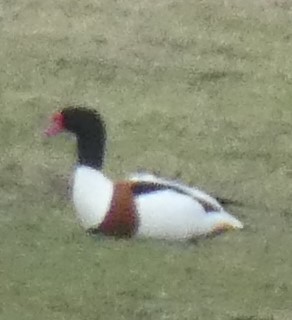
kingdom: Animalia
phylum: Chordata
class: Aves
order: Anseriformes
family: Anatidae
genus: Tadorna
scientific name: Tadorna tadorna
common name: Common shelduck
